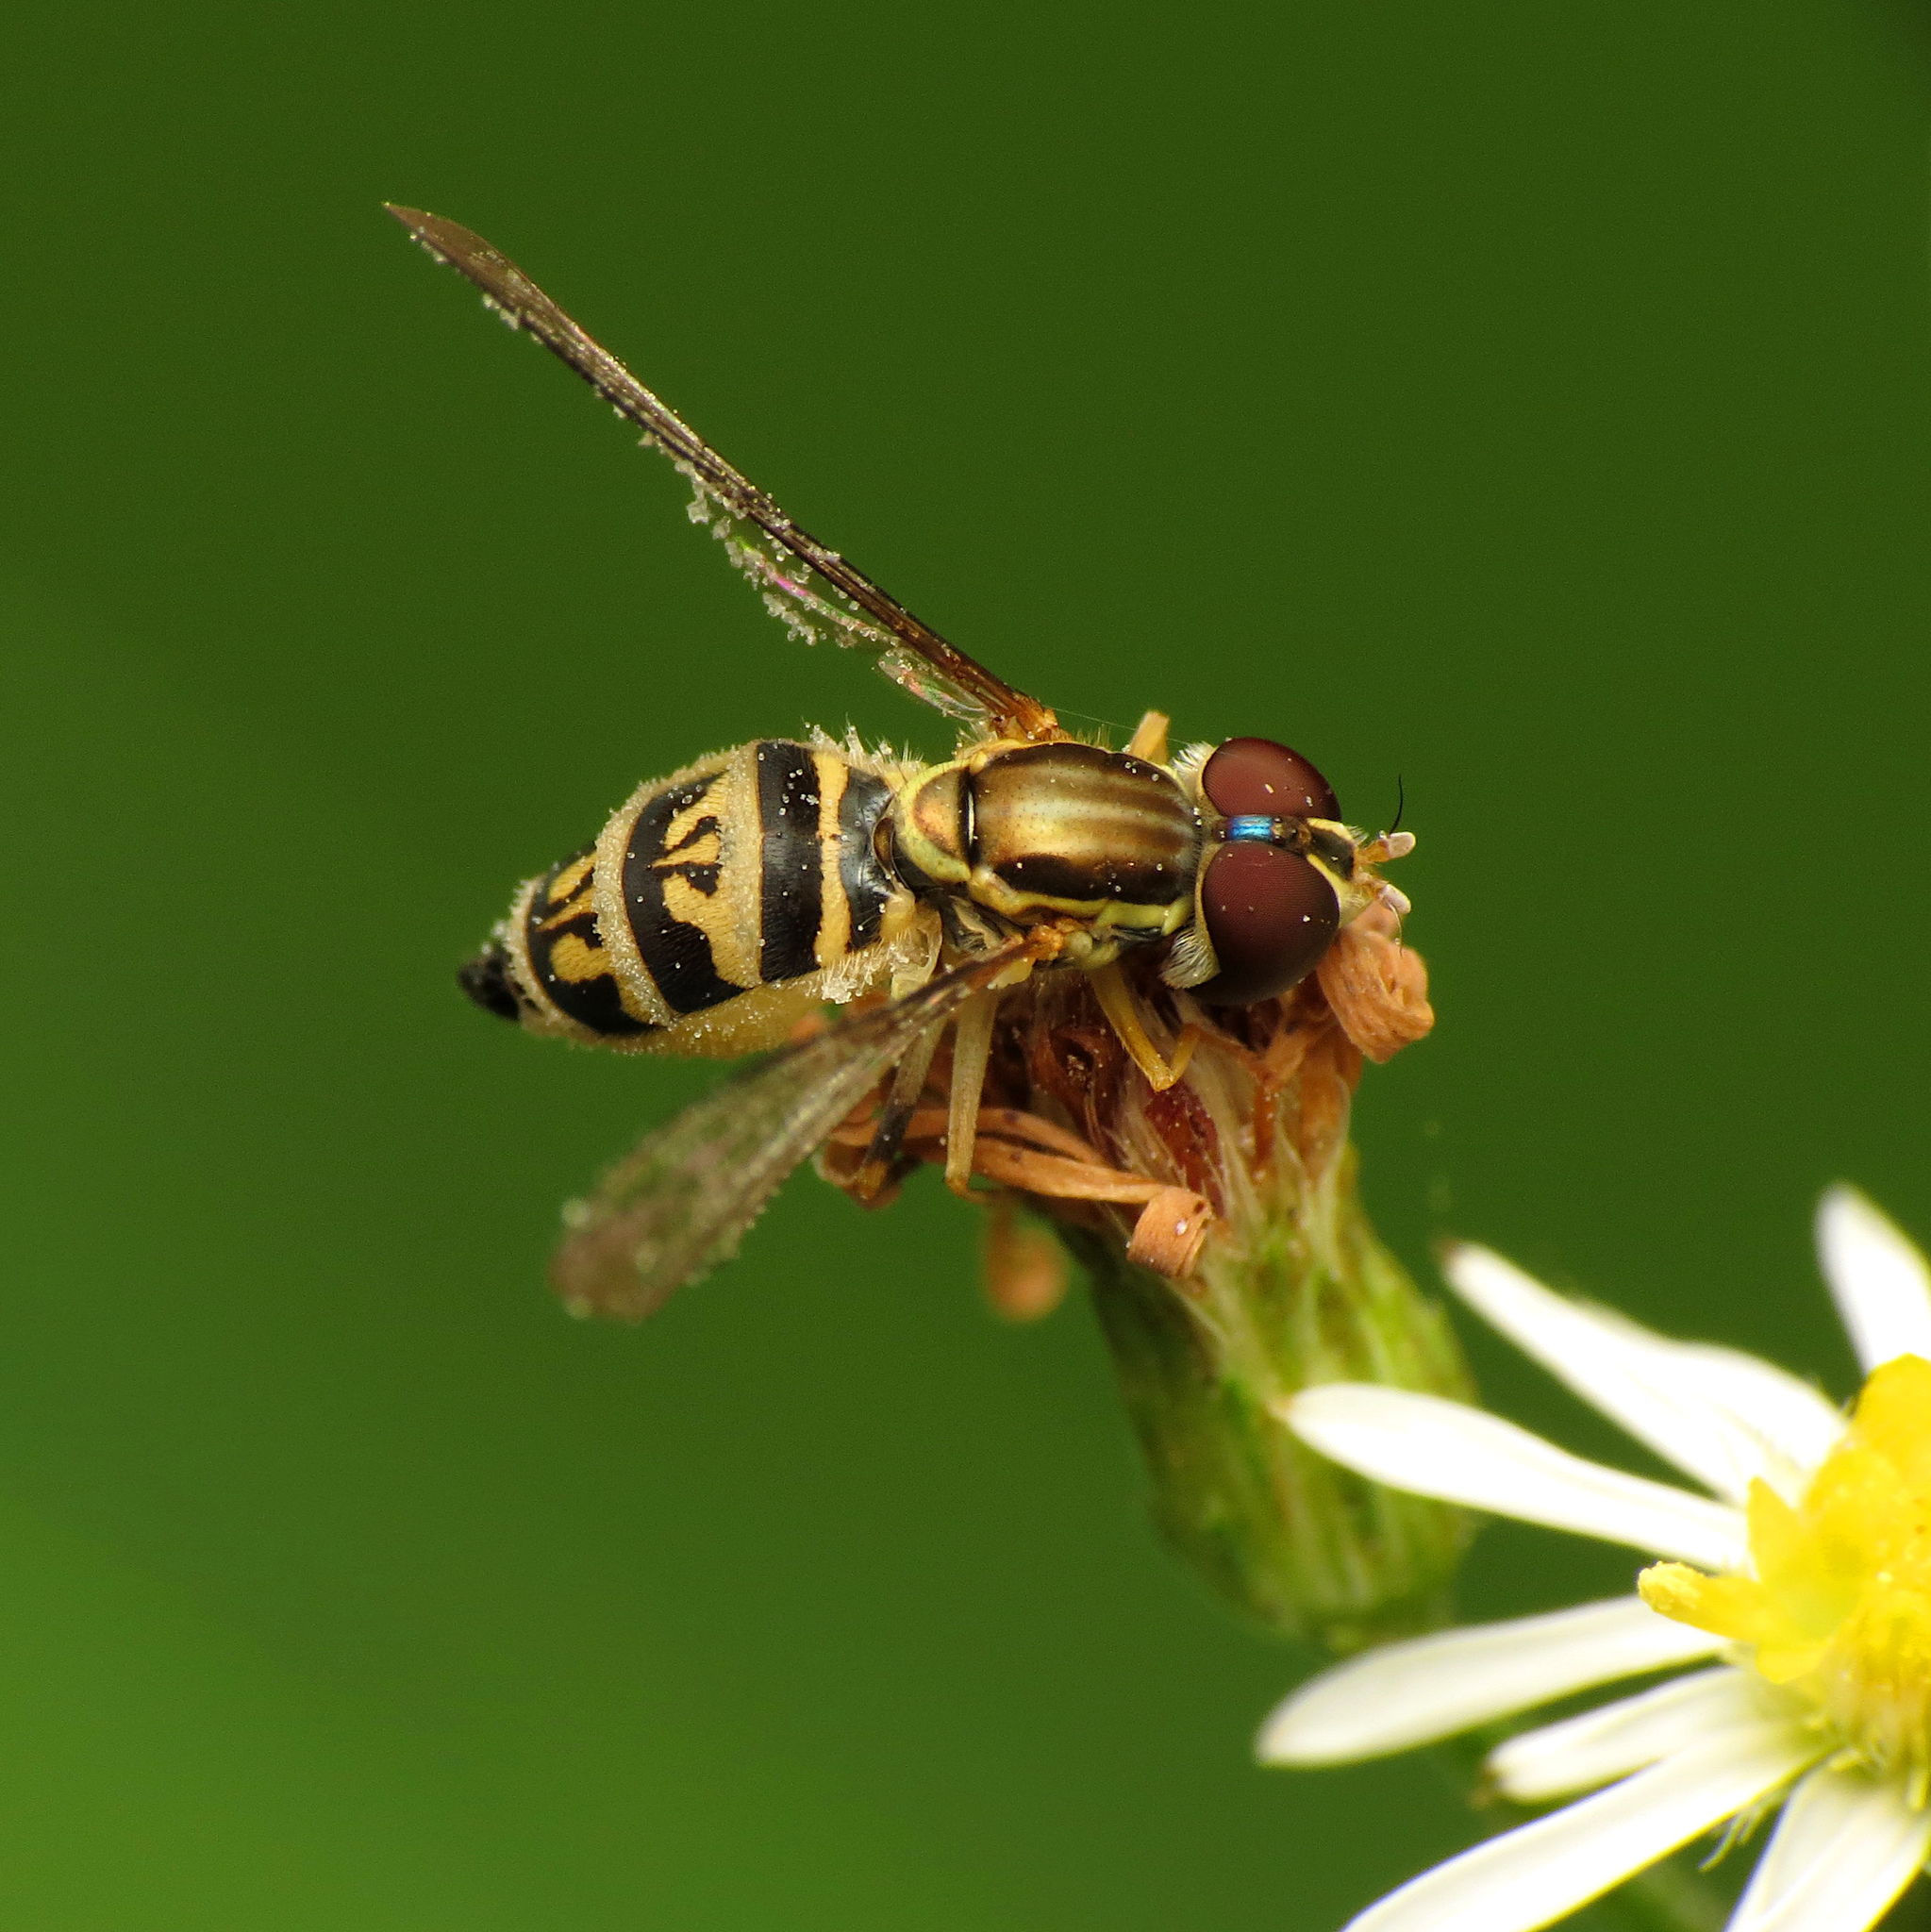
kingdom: Animalia
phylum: Arthropoda
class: Insecta
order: Diptera
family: Syrphidae
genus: Toxomerus
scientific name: Toxomerus geminatus
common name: Eastern calligrapher
